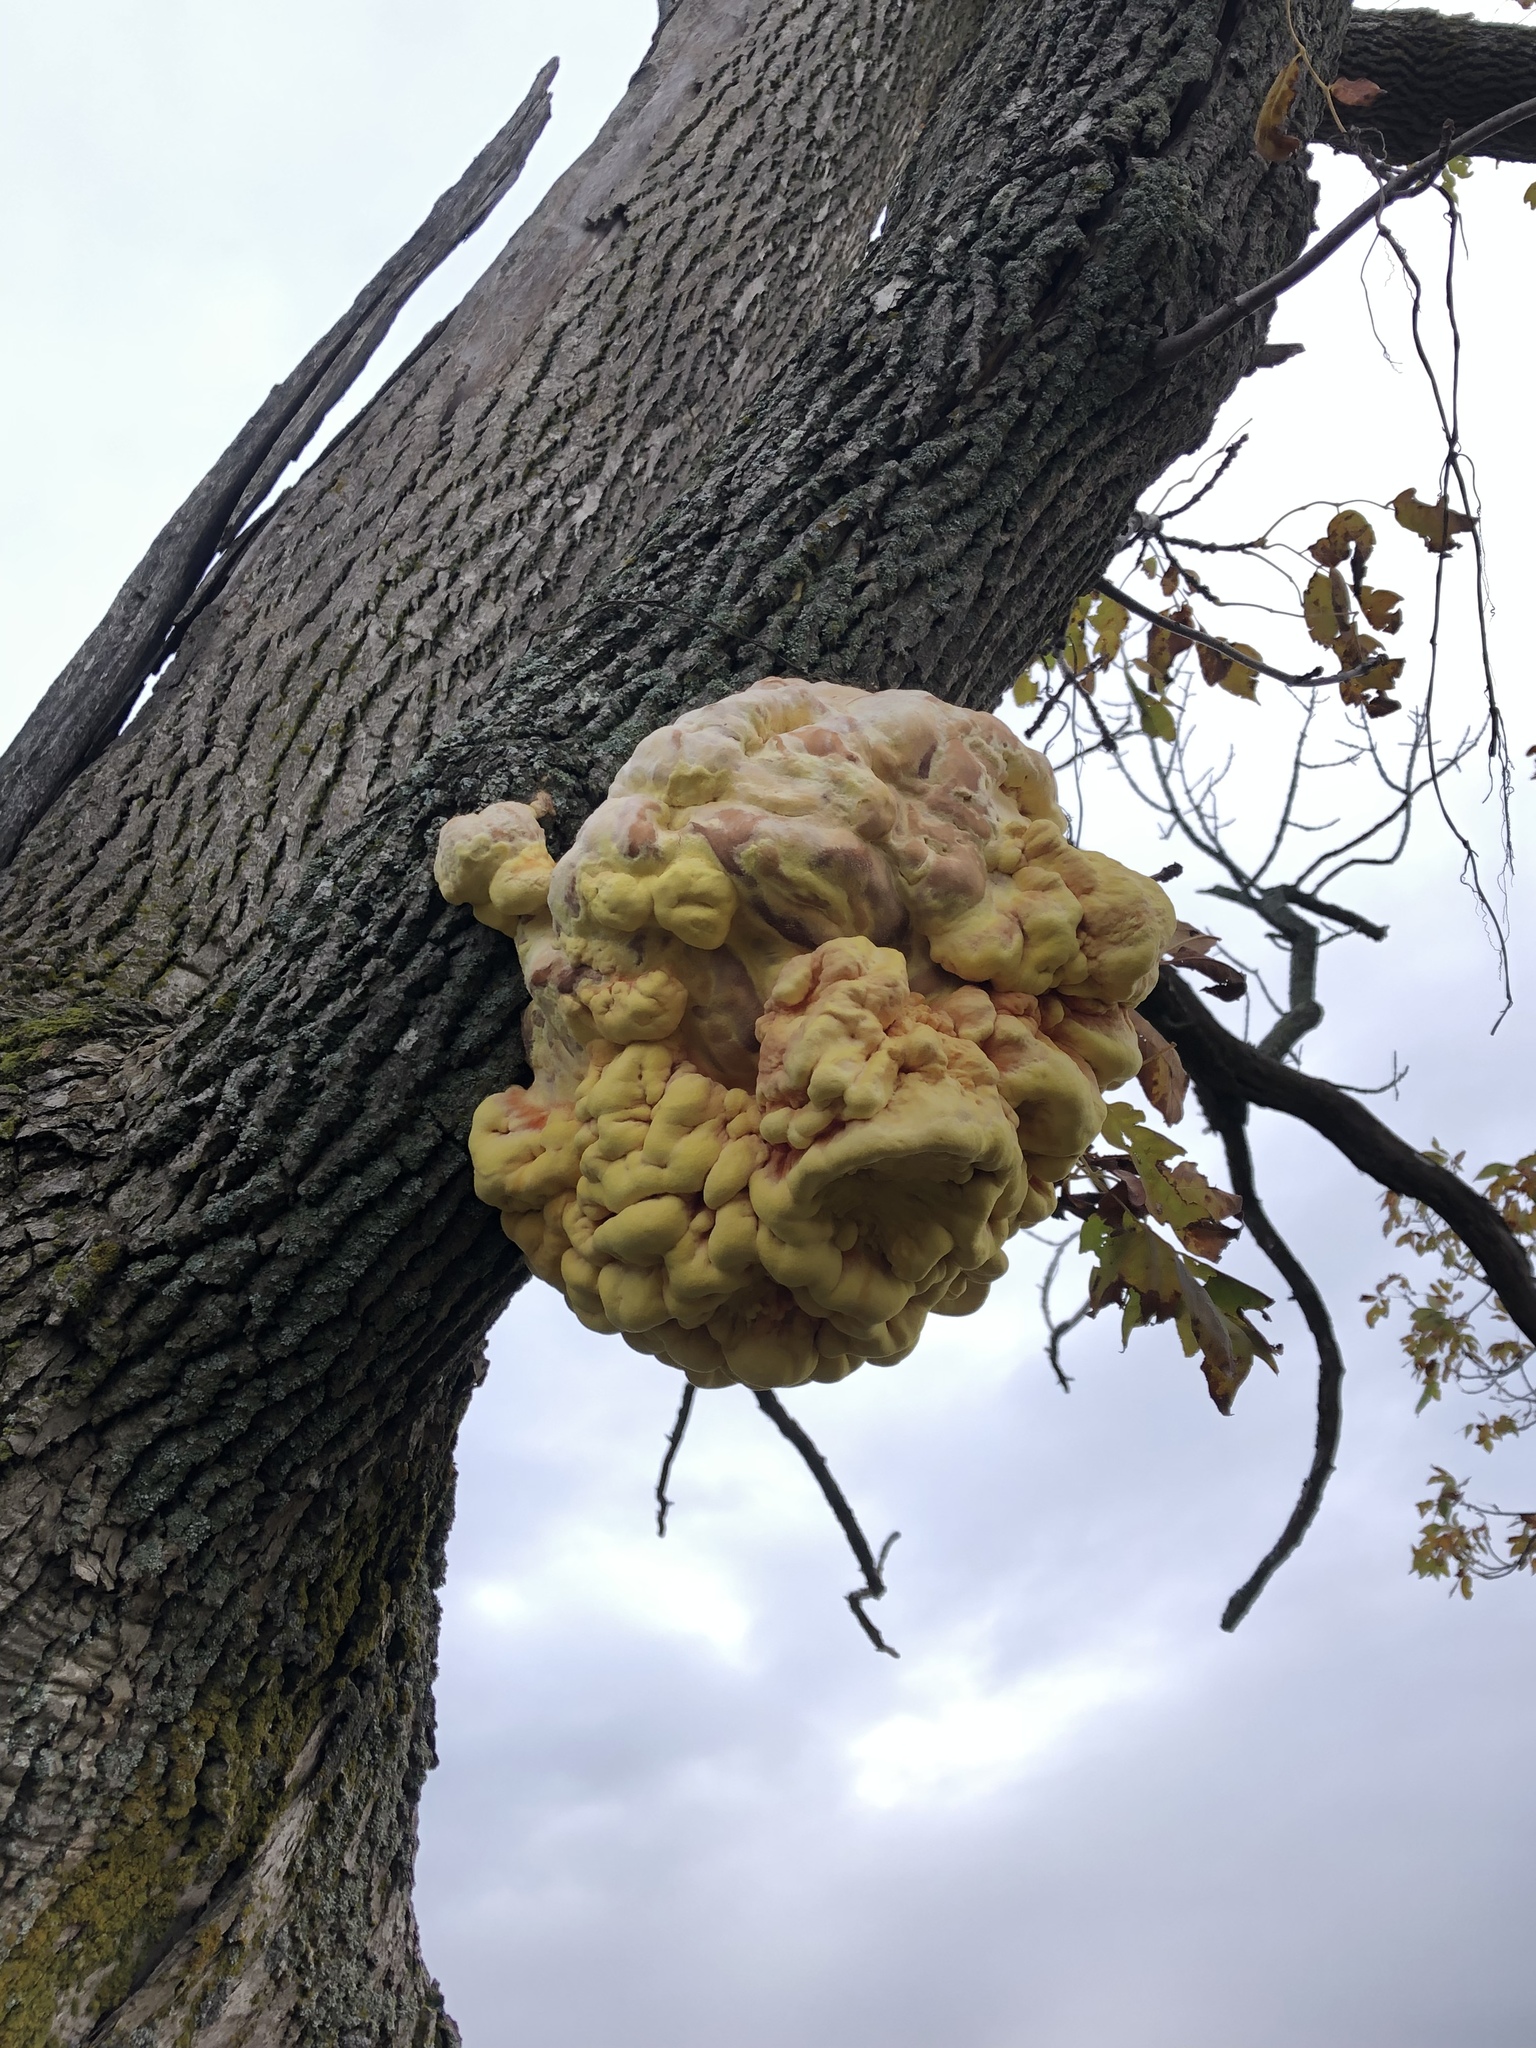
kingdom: Fungi
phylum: Basidiomycota
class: Agaricomycetes
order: Polyporales
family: Laetiporaceae
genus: Laetiporus
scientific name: Laetiporus sulphureus
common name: Chicken of the woods
